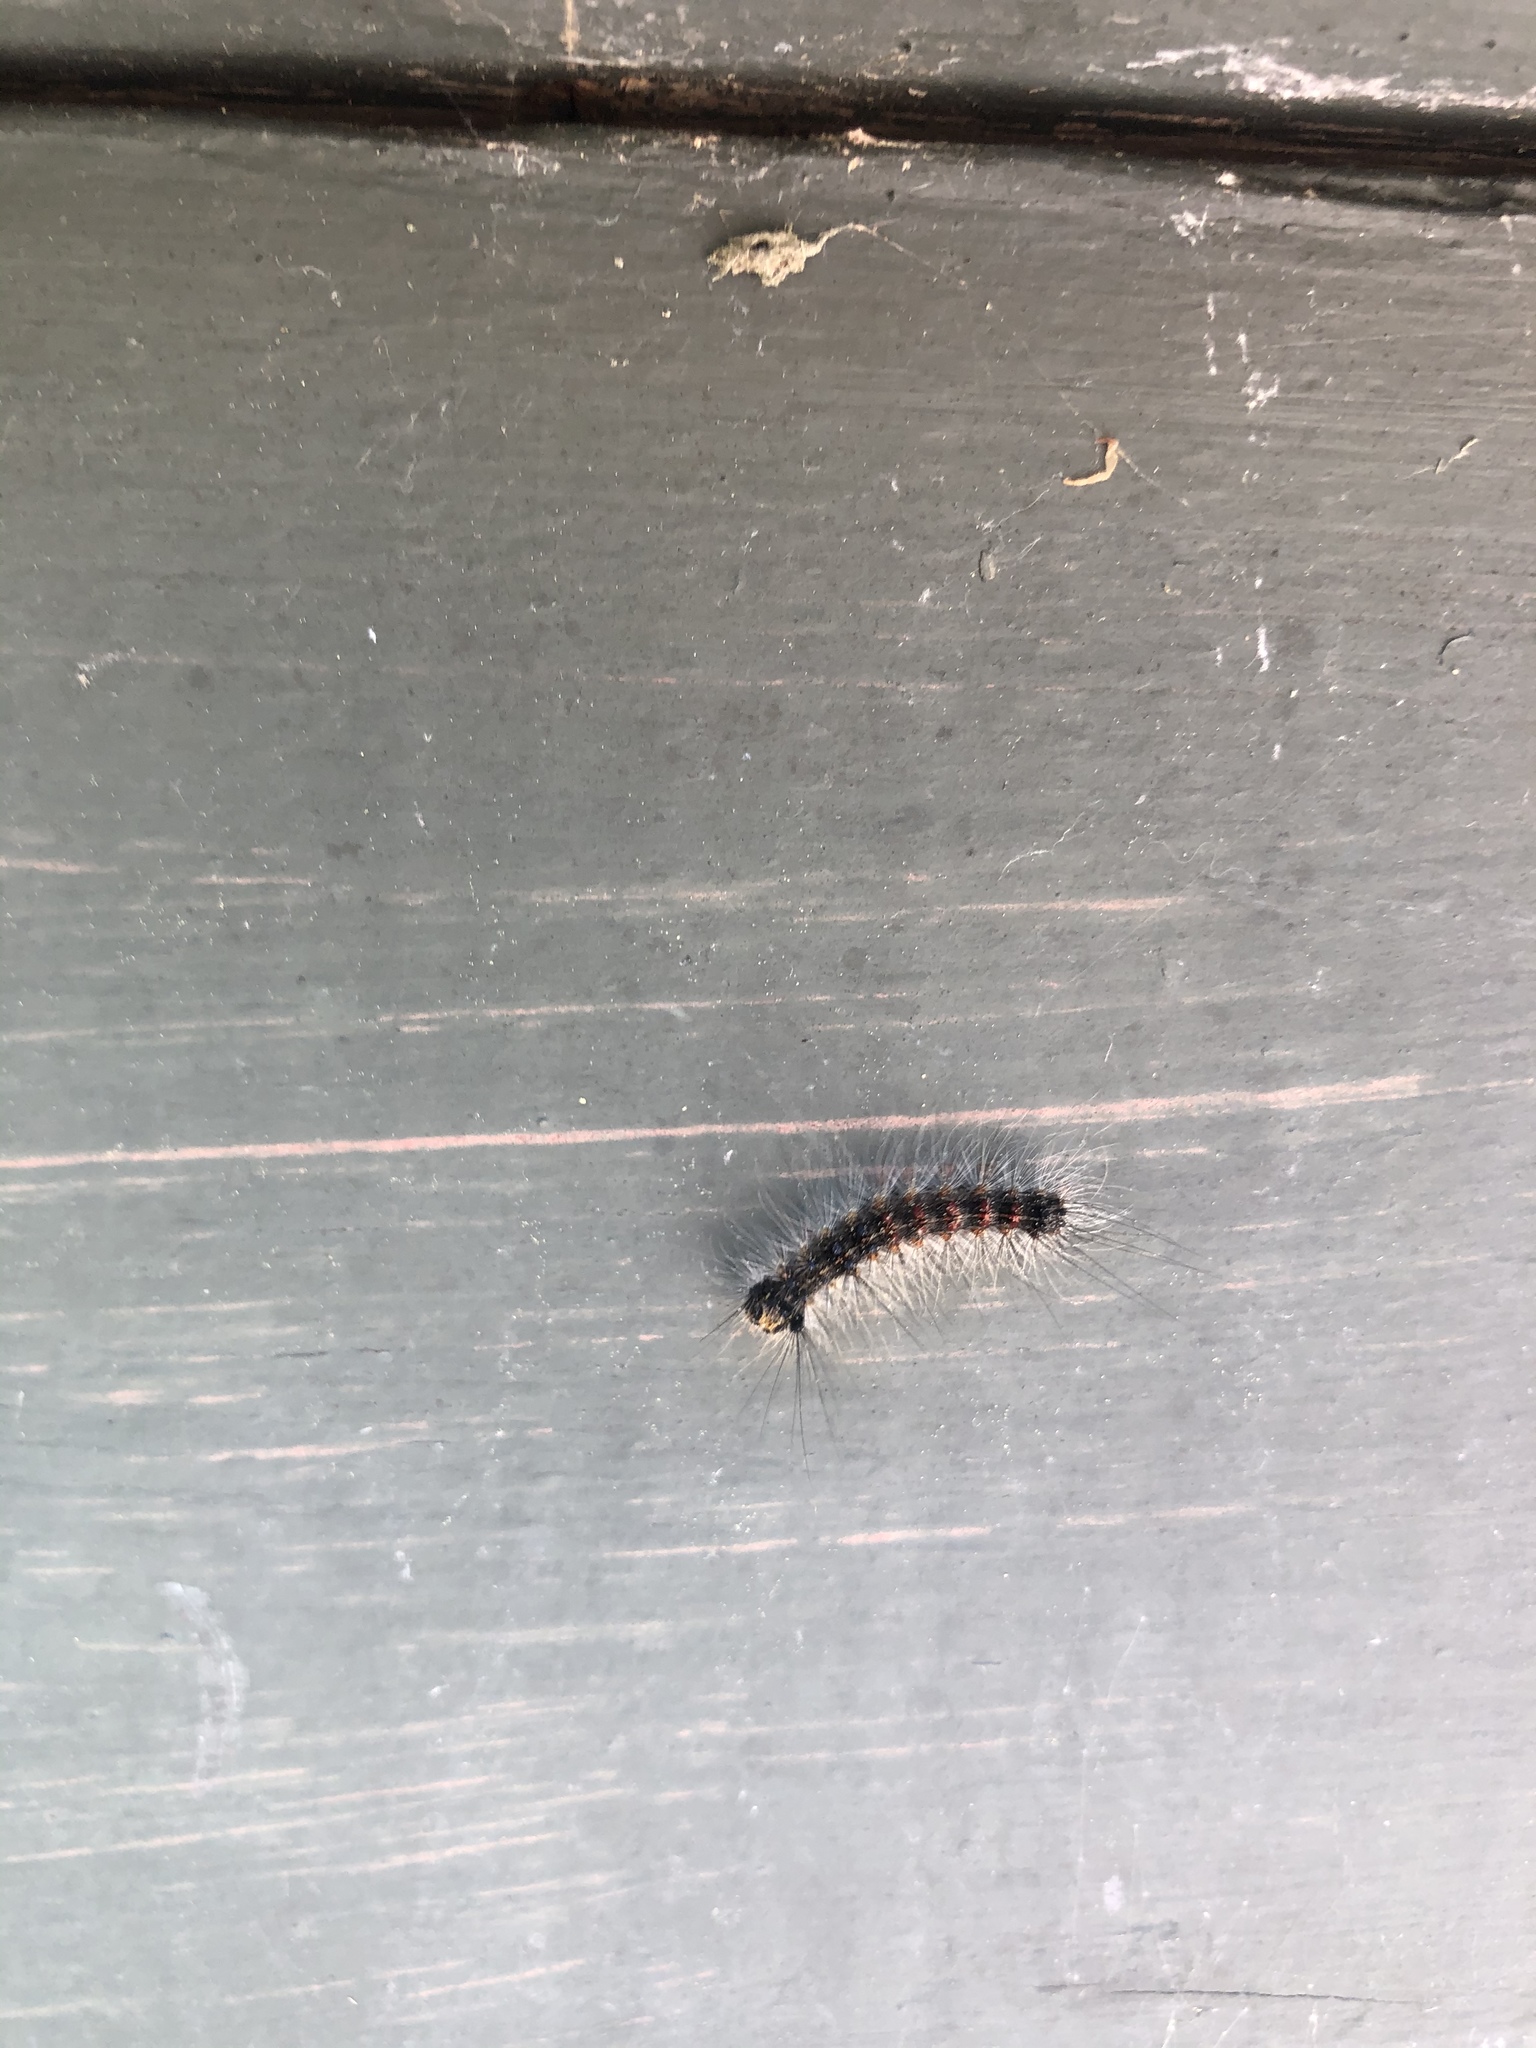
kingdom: Animalia
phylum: Arthropoda
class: Insecta
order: Lepidoptera
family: Erebidae
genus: Lymantria
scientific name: Lymantria dispar
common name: Gypsy moth
